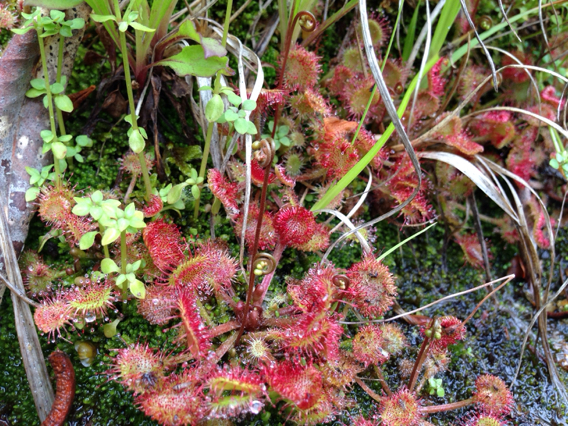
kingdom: Plantae
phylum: Tracheophyta
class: Magnoliopsida
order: Caryophyllales
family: Droseraceae
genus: Drosera
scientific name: Drosera rotundifolia
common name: Round-leaved sundew
